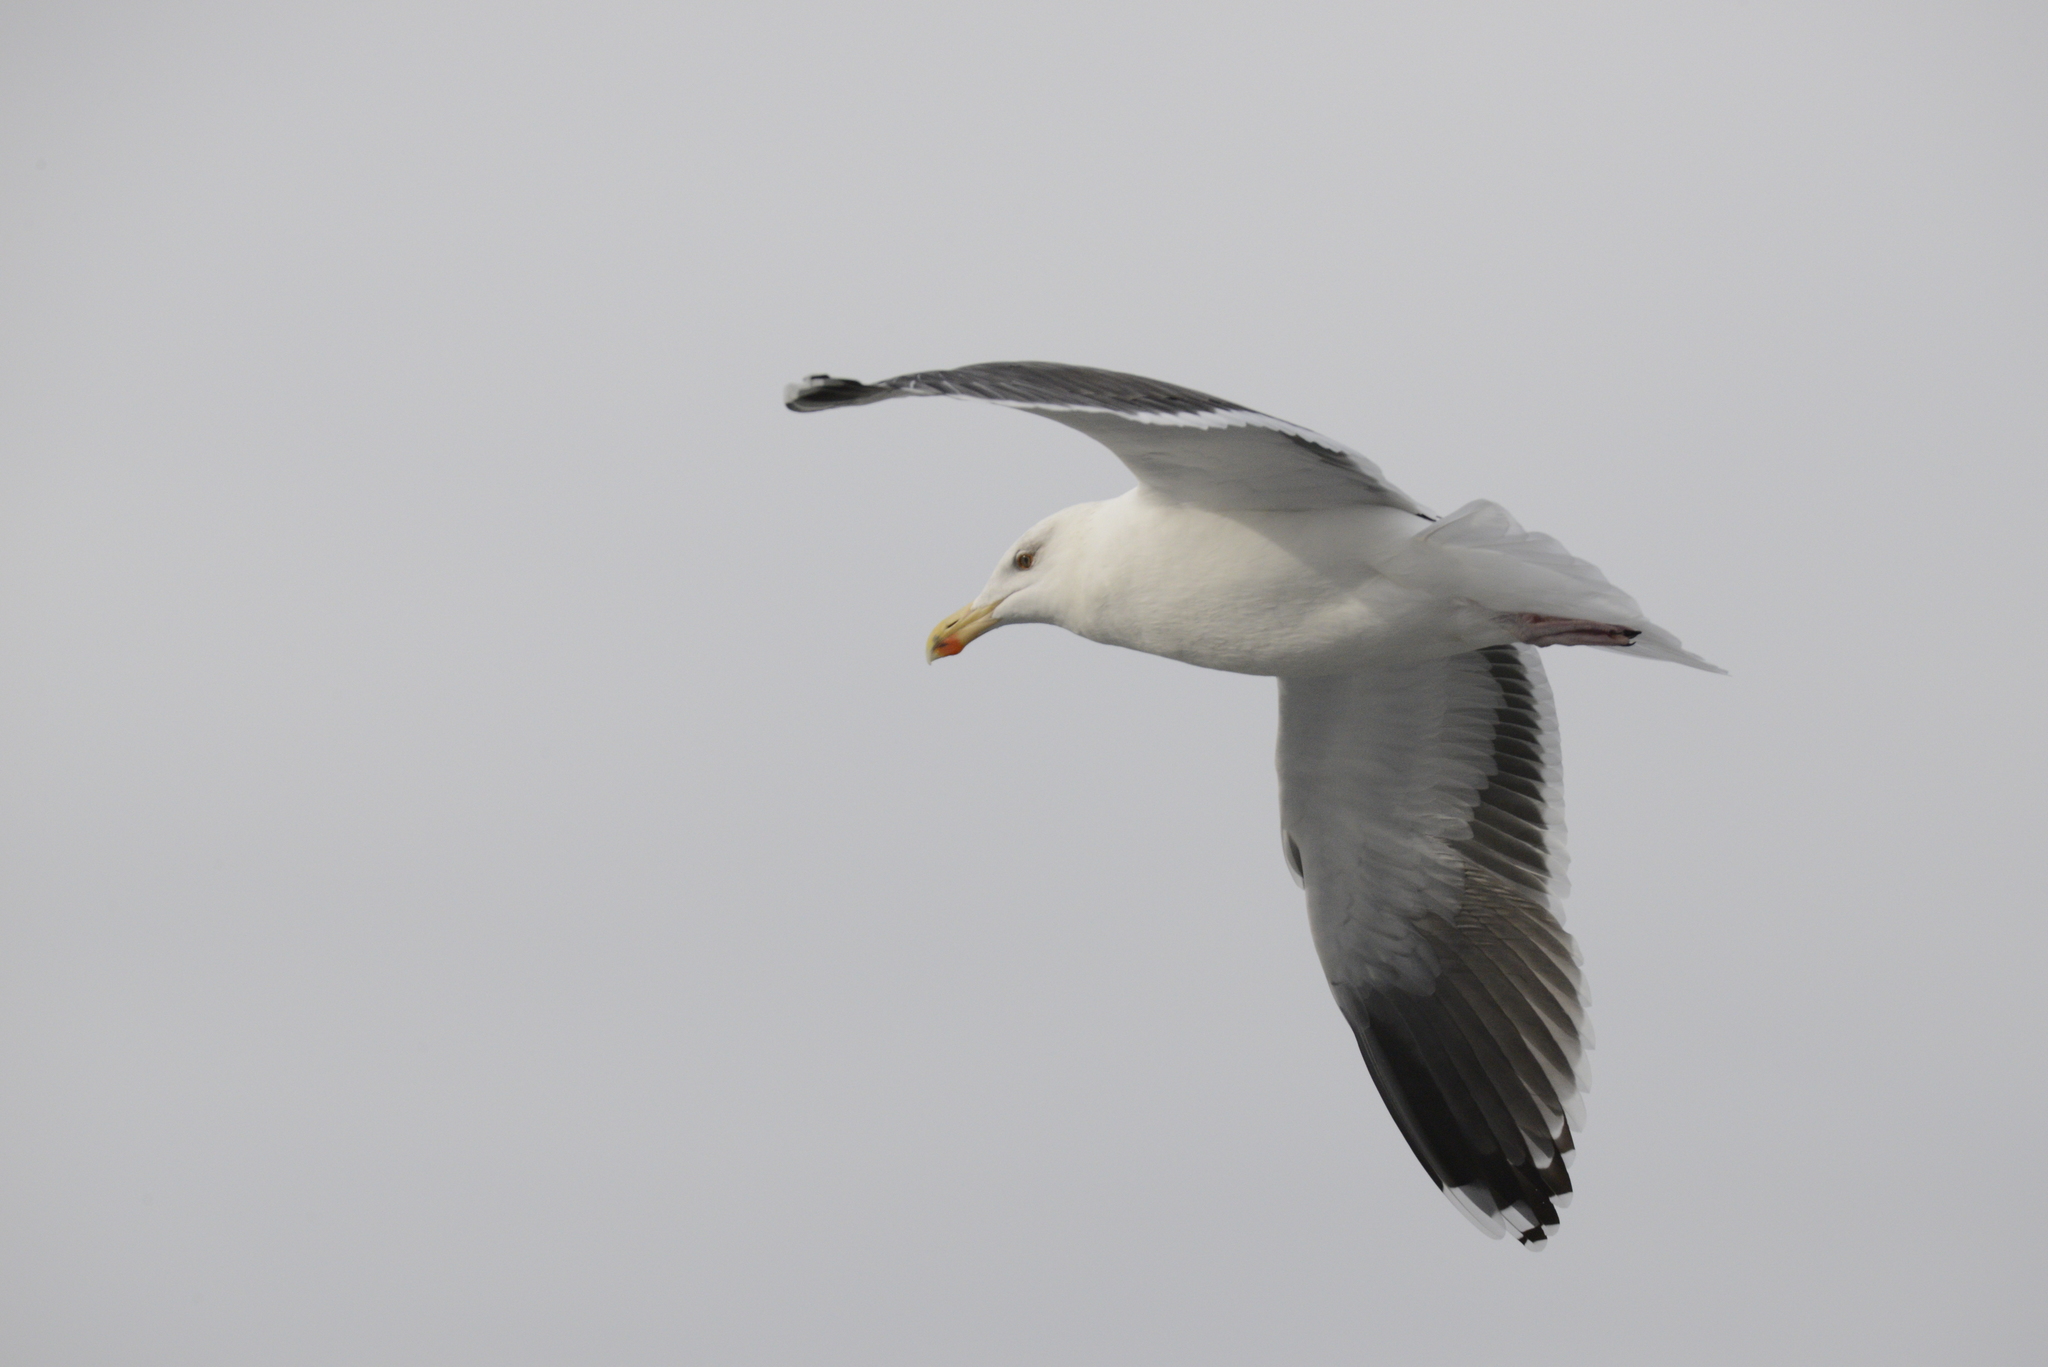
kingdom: Animalia
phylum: Chordata
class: Aves
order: Charadriiformes
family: Laridae
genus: Larus
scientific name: Larus marinus
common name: Great black-backed gull
